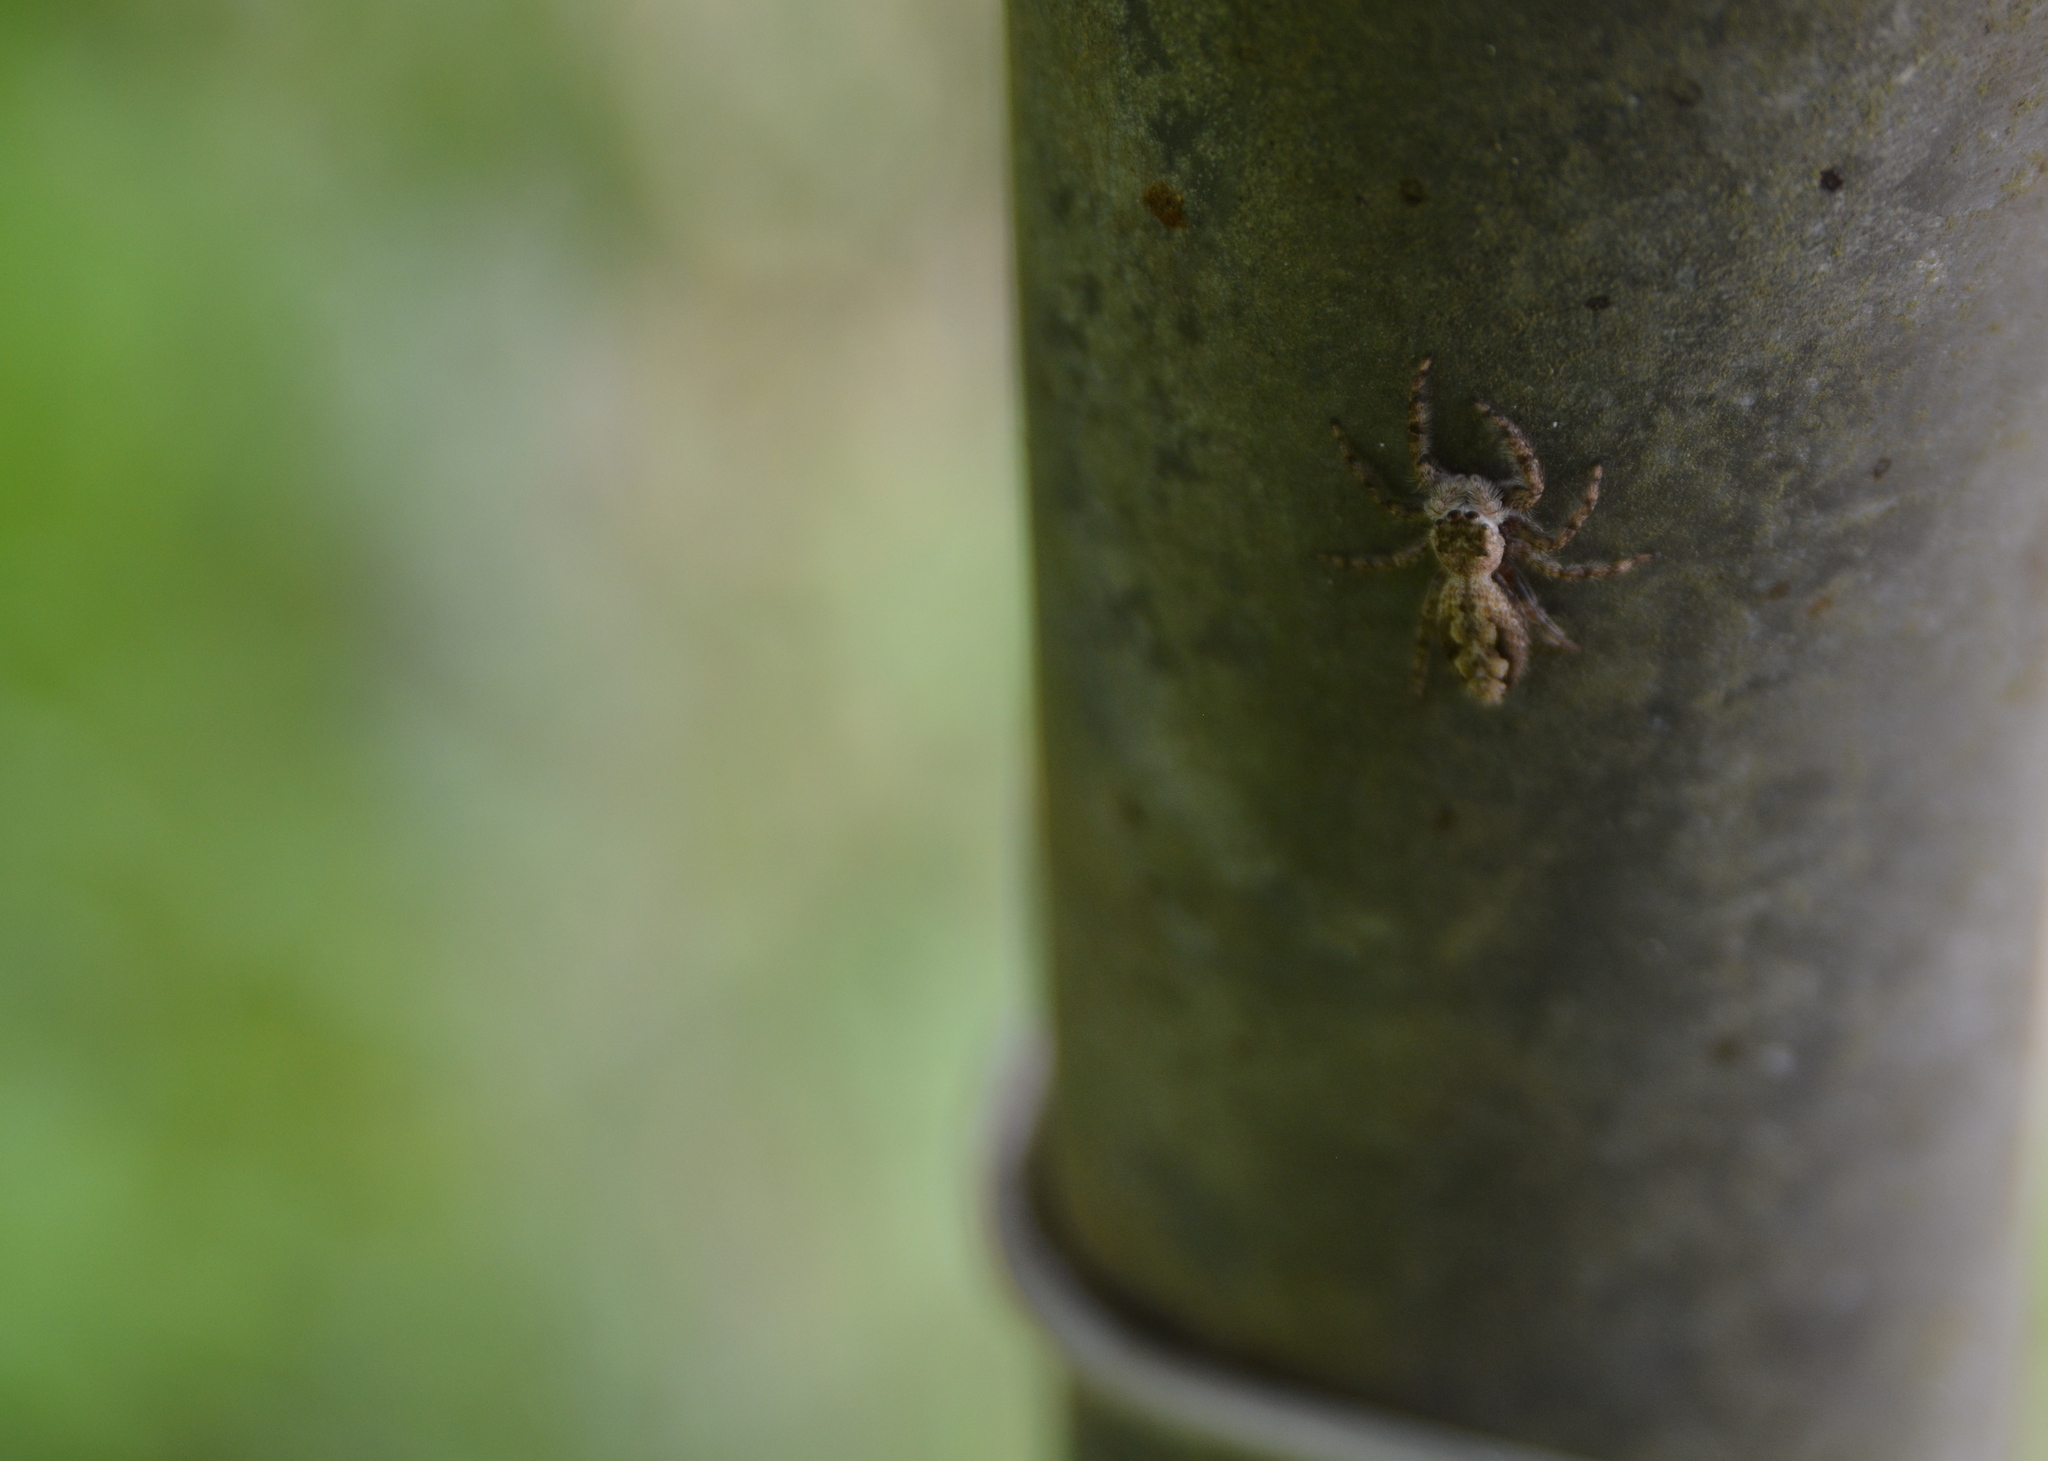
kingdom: Animalia
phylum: Arthropoda
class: Arachnida
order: Araneae
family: Salticidae
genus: Platycryptus
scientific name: Platycryptus undatus
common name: Tan jumping spider
